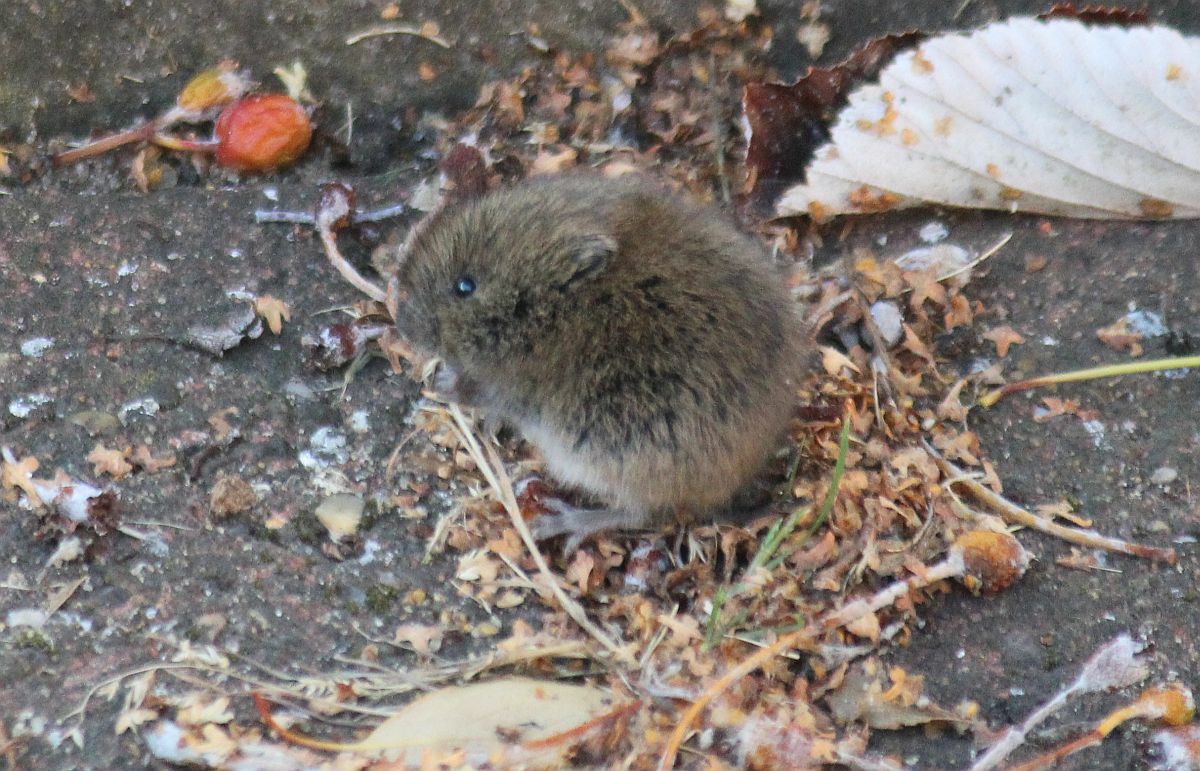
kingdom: Animalia
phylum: Chordata
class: Mammalia
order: Rodentia
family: Cricetidae
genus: Microtus
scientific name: Microtus agrestis
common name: Field vole
